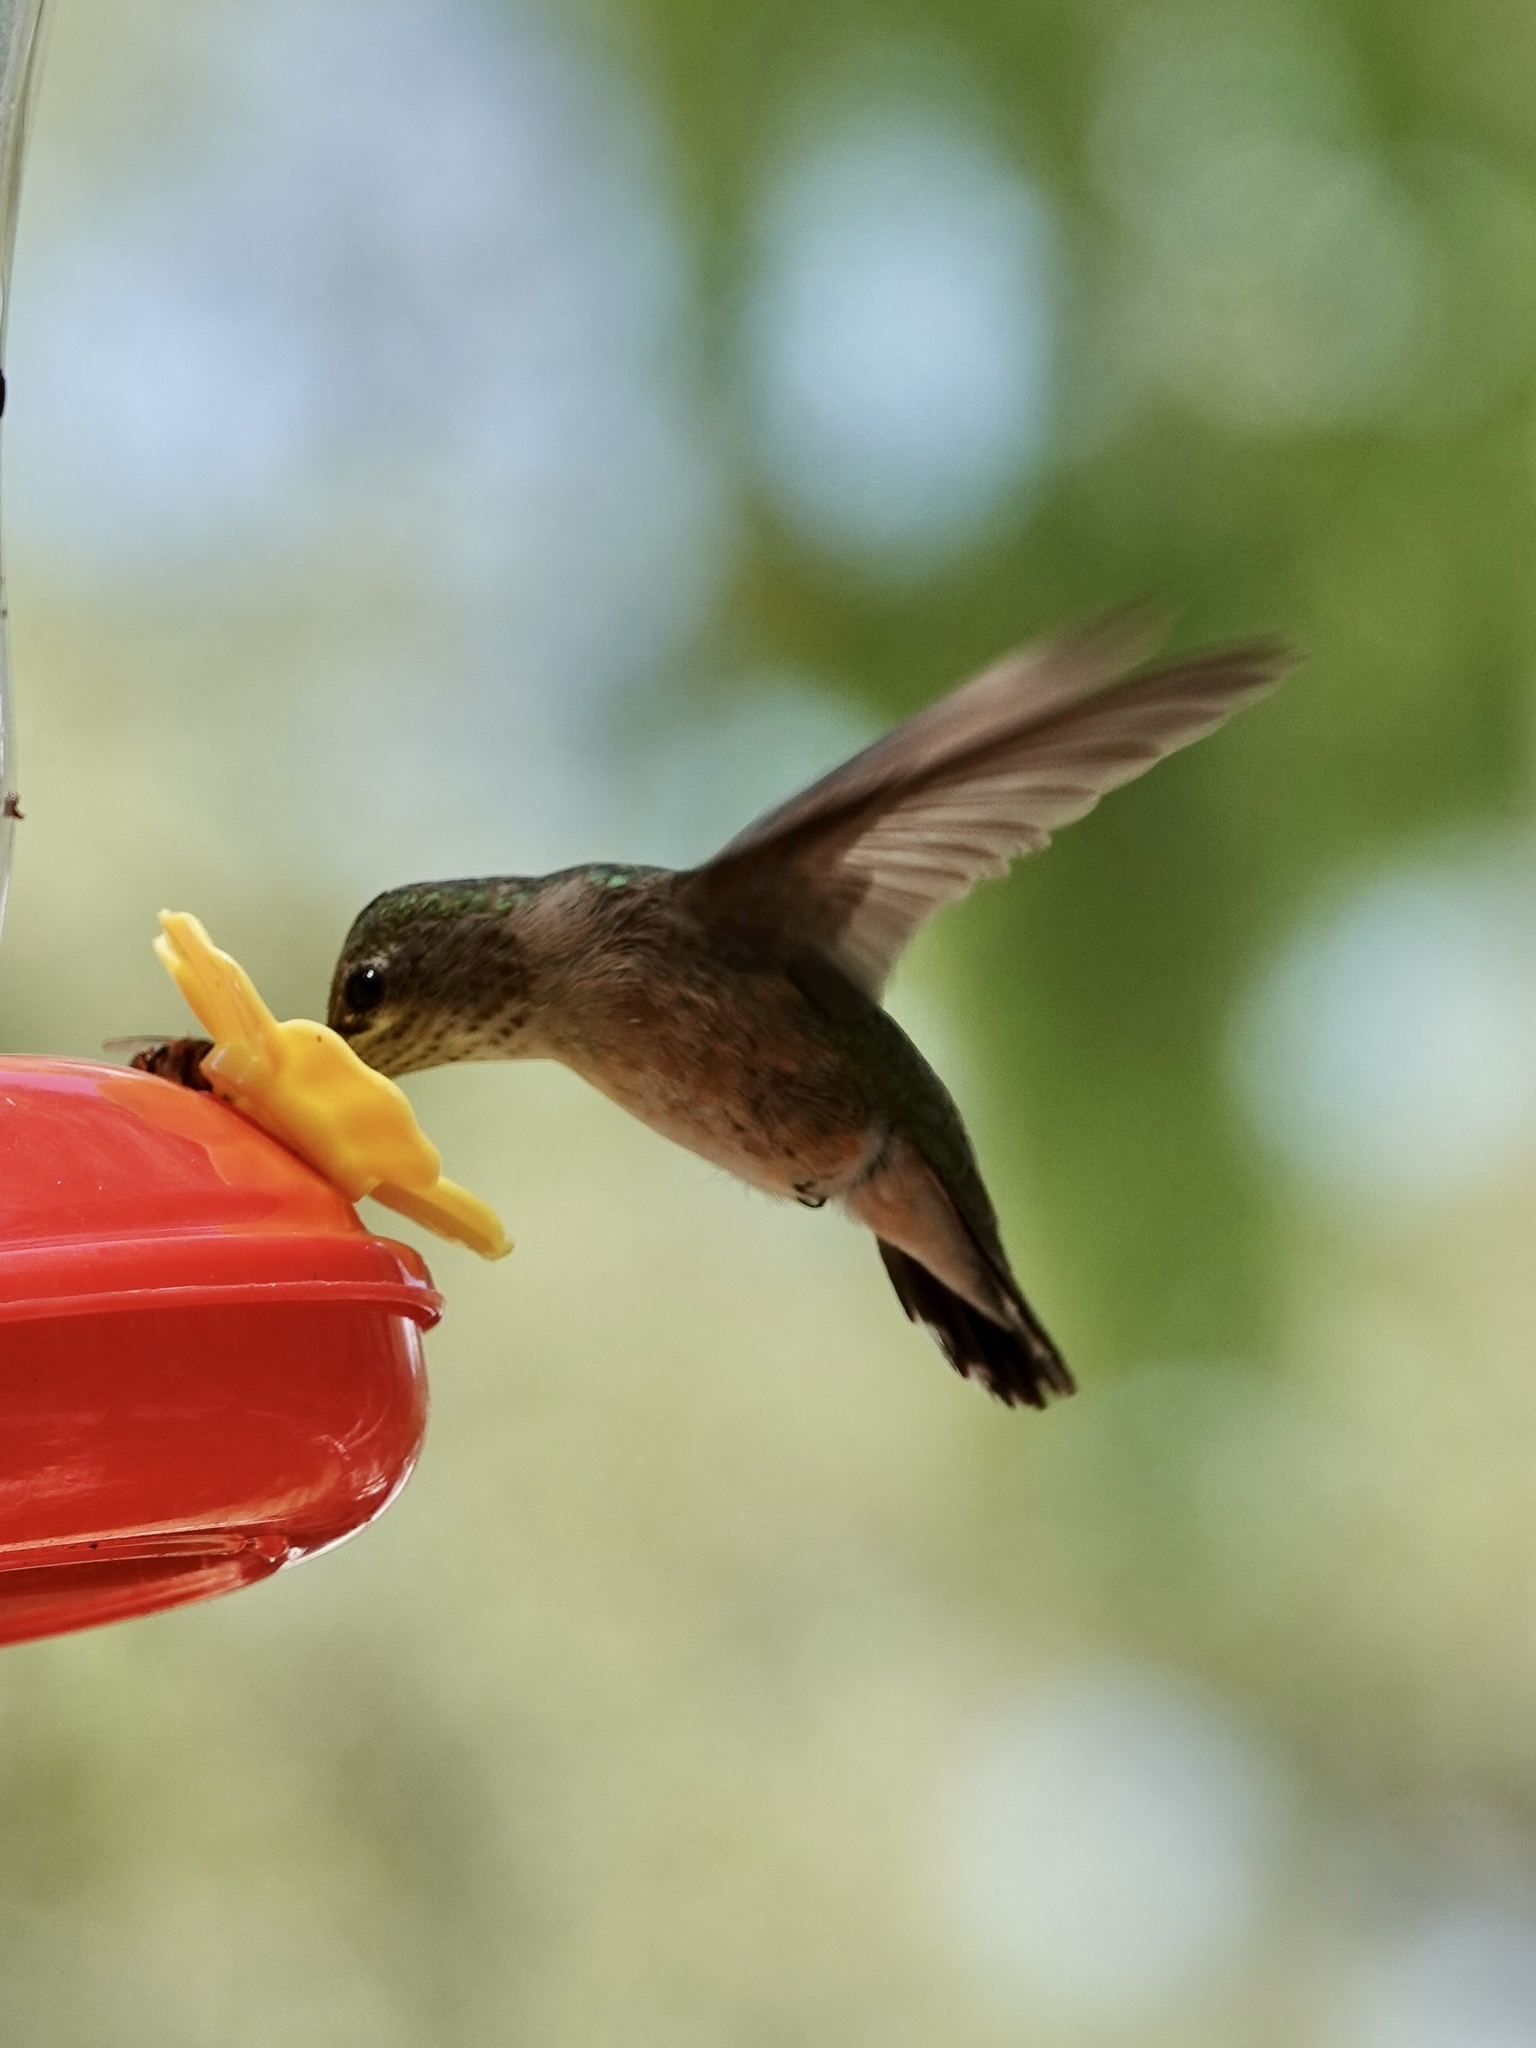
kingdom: Animalia
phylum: Chordata
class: Aves
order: Apodiformes
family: Trochilidae
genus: Selasphorus
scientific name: Selasphorus calliope
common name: Calliope hummingbird
